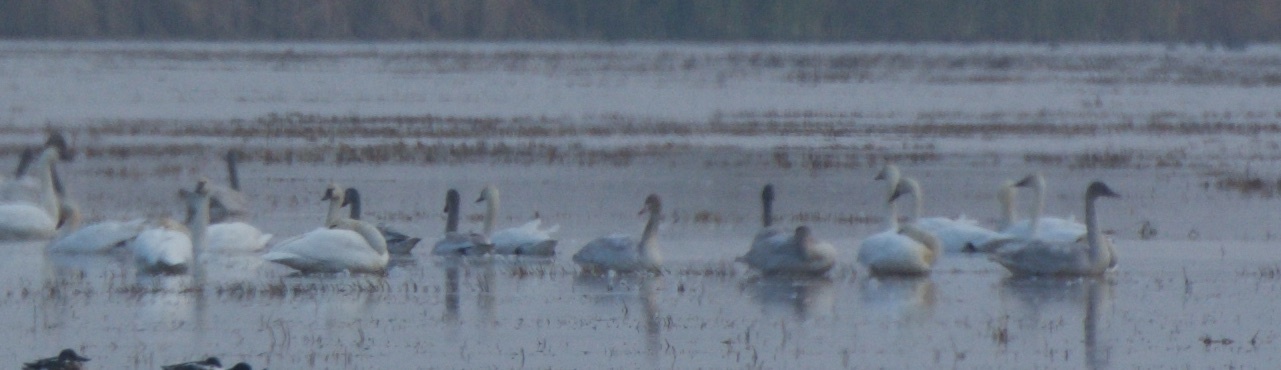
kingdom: Animalia
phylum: Chordata
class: Aves
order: Anseriformes
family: Anatidae
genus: Cygnus
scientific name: Cygnus columbianus
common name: Tundra swan
